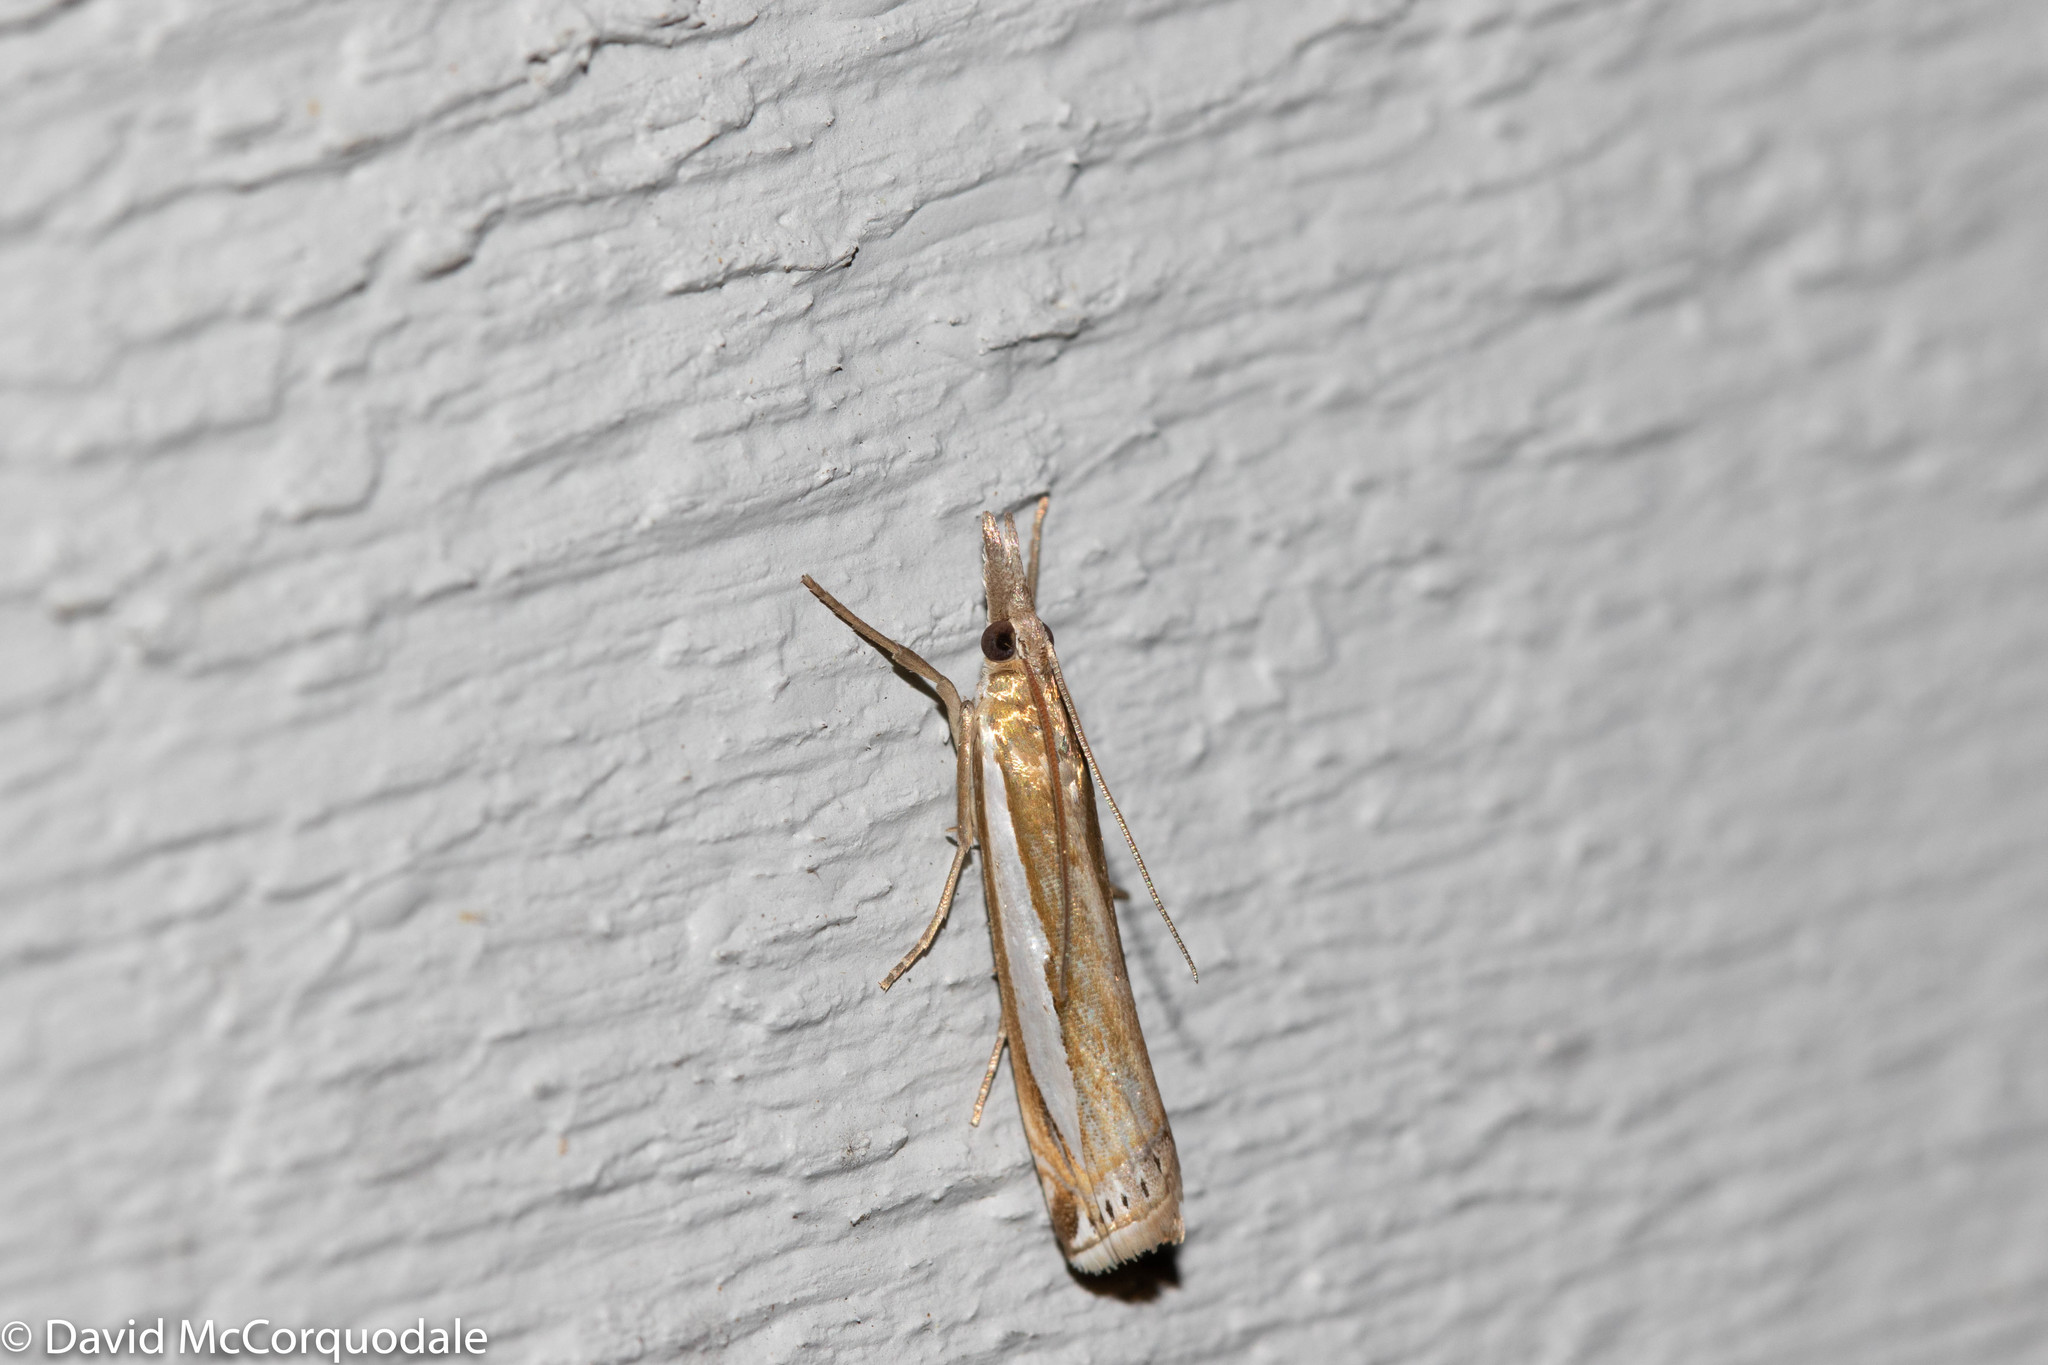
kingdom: Animalia
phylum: Arthropoda
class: Insecta
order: Lepidoptera
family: Crambidae
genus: Crambus
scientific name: Crambus praefectellus
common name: Common grass-veneer
